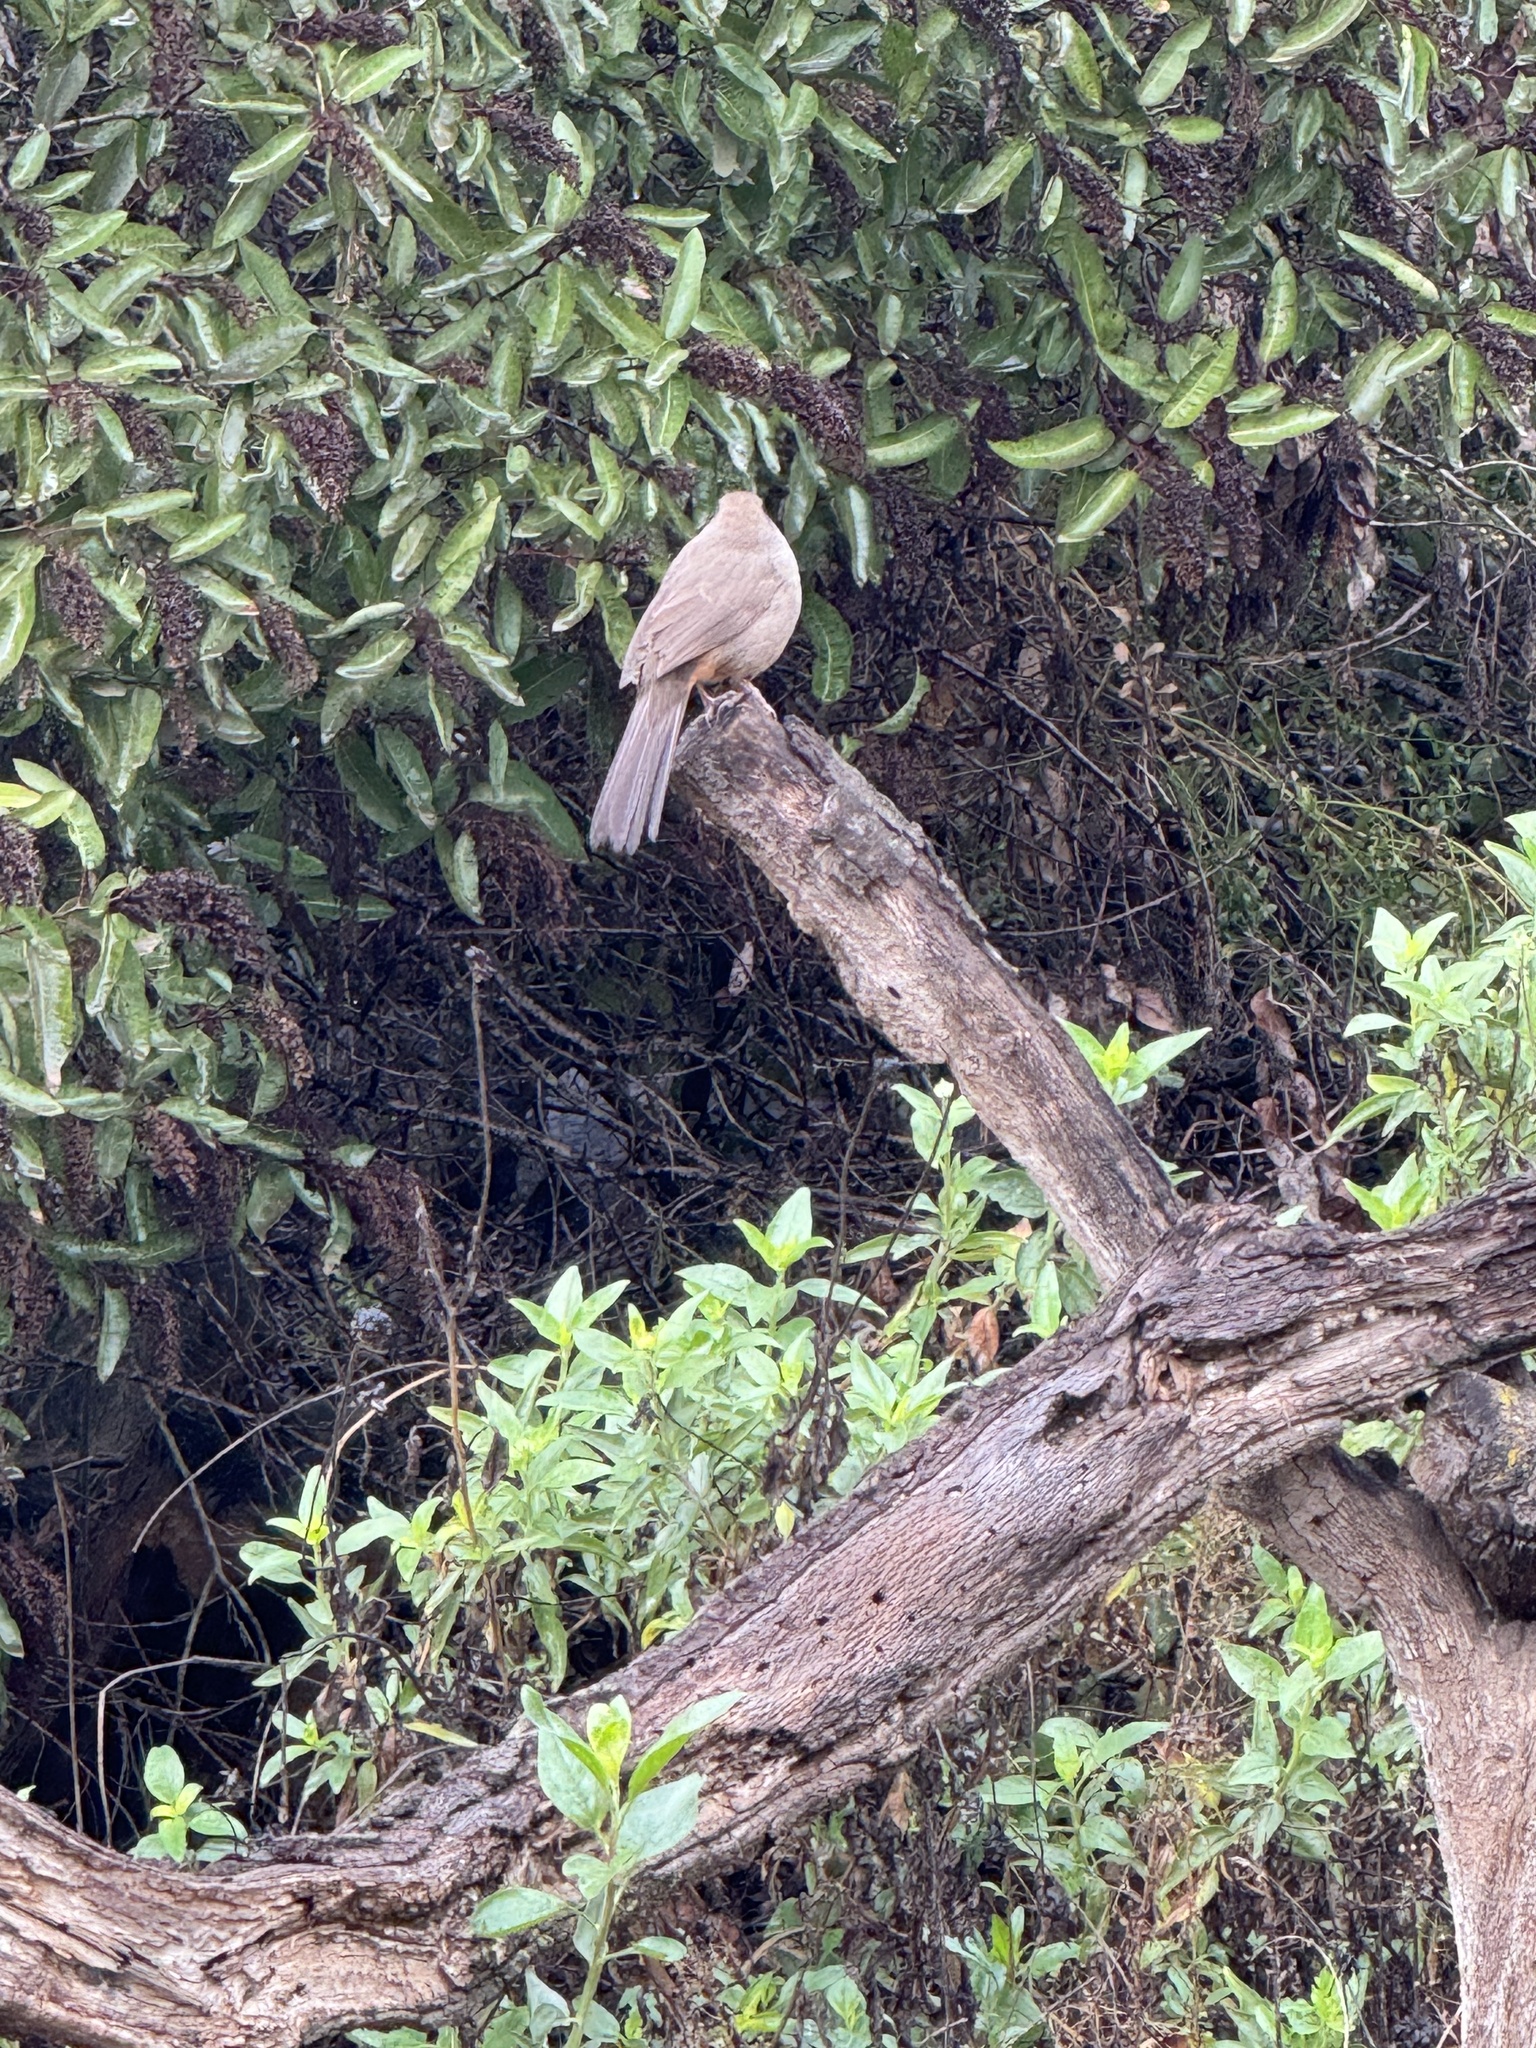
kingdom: Animalia
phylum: Chordata
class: Aves
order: Passeriformes
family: Passerellidae
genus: Melozone
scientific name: Melozone crissalis
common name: California towhee
